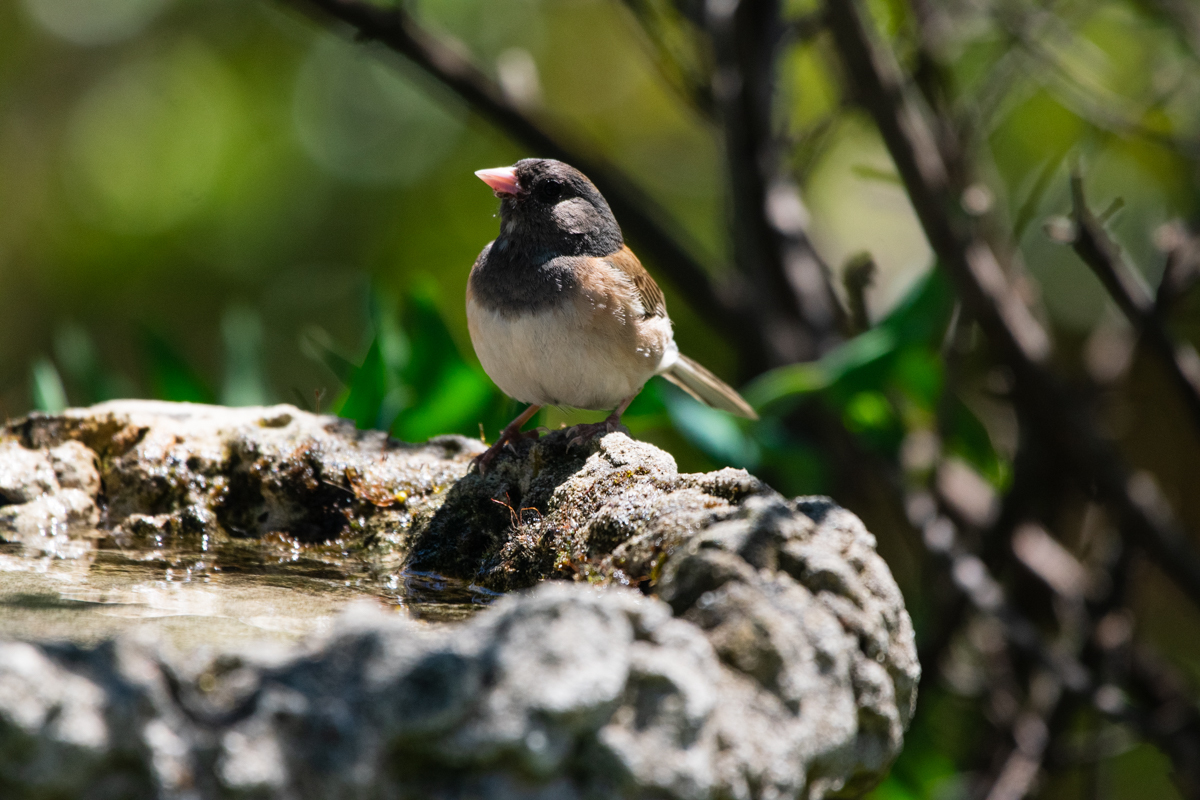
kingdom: Animalia
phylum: Chordata
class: Aves
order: Passeriformes
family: Passerellidae
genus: Junco
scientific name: Junco hyemalis
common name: Dark-eyed junco
